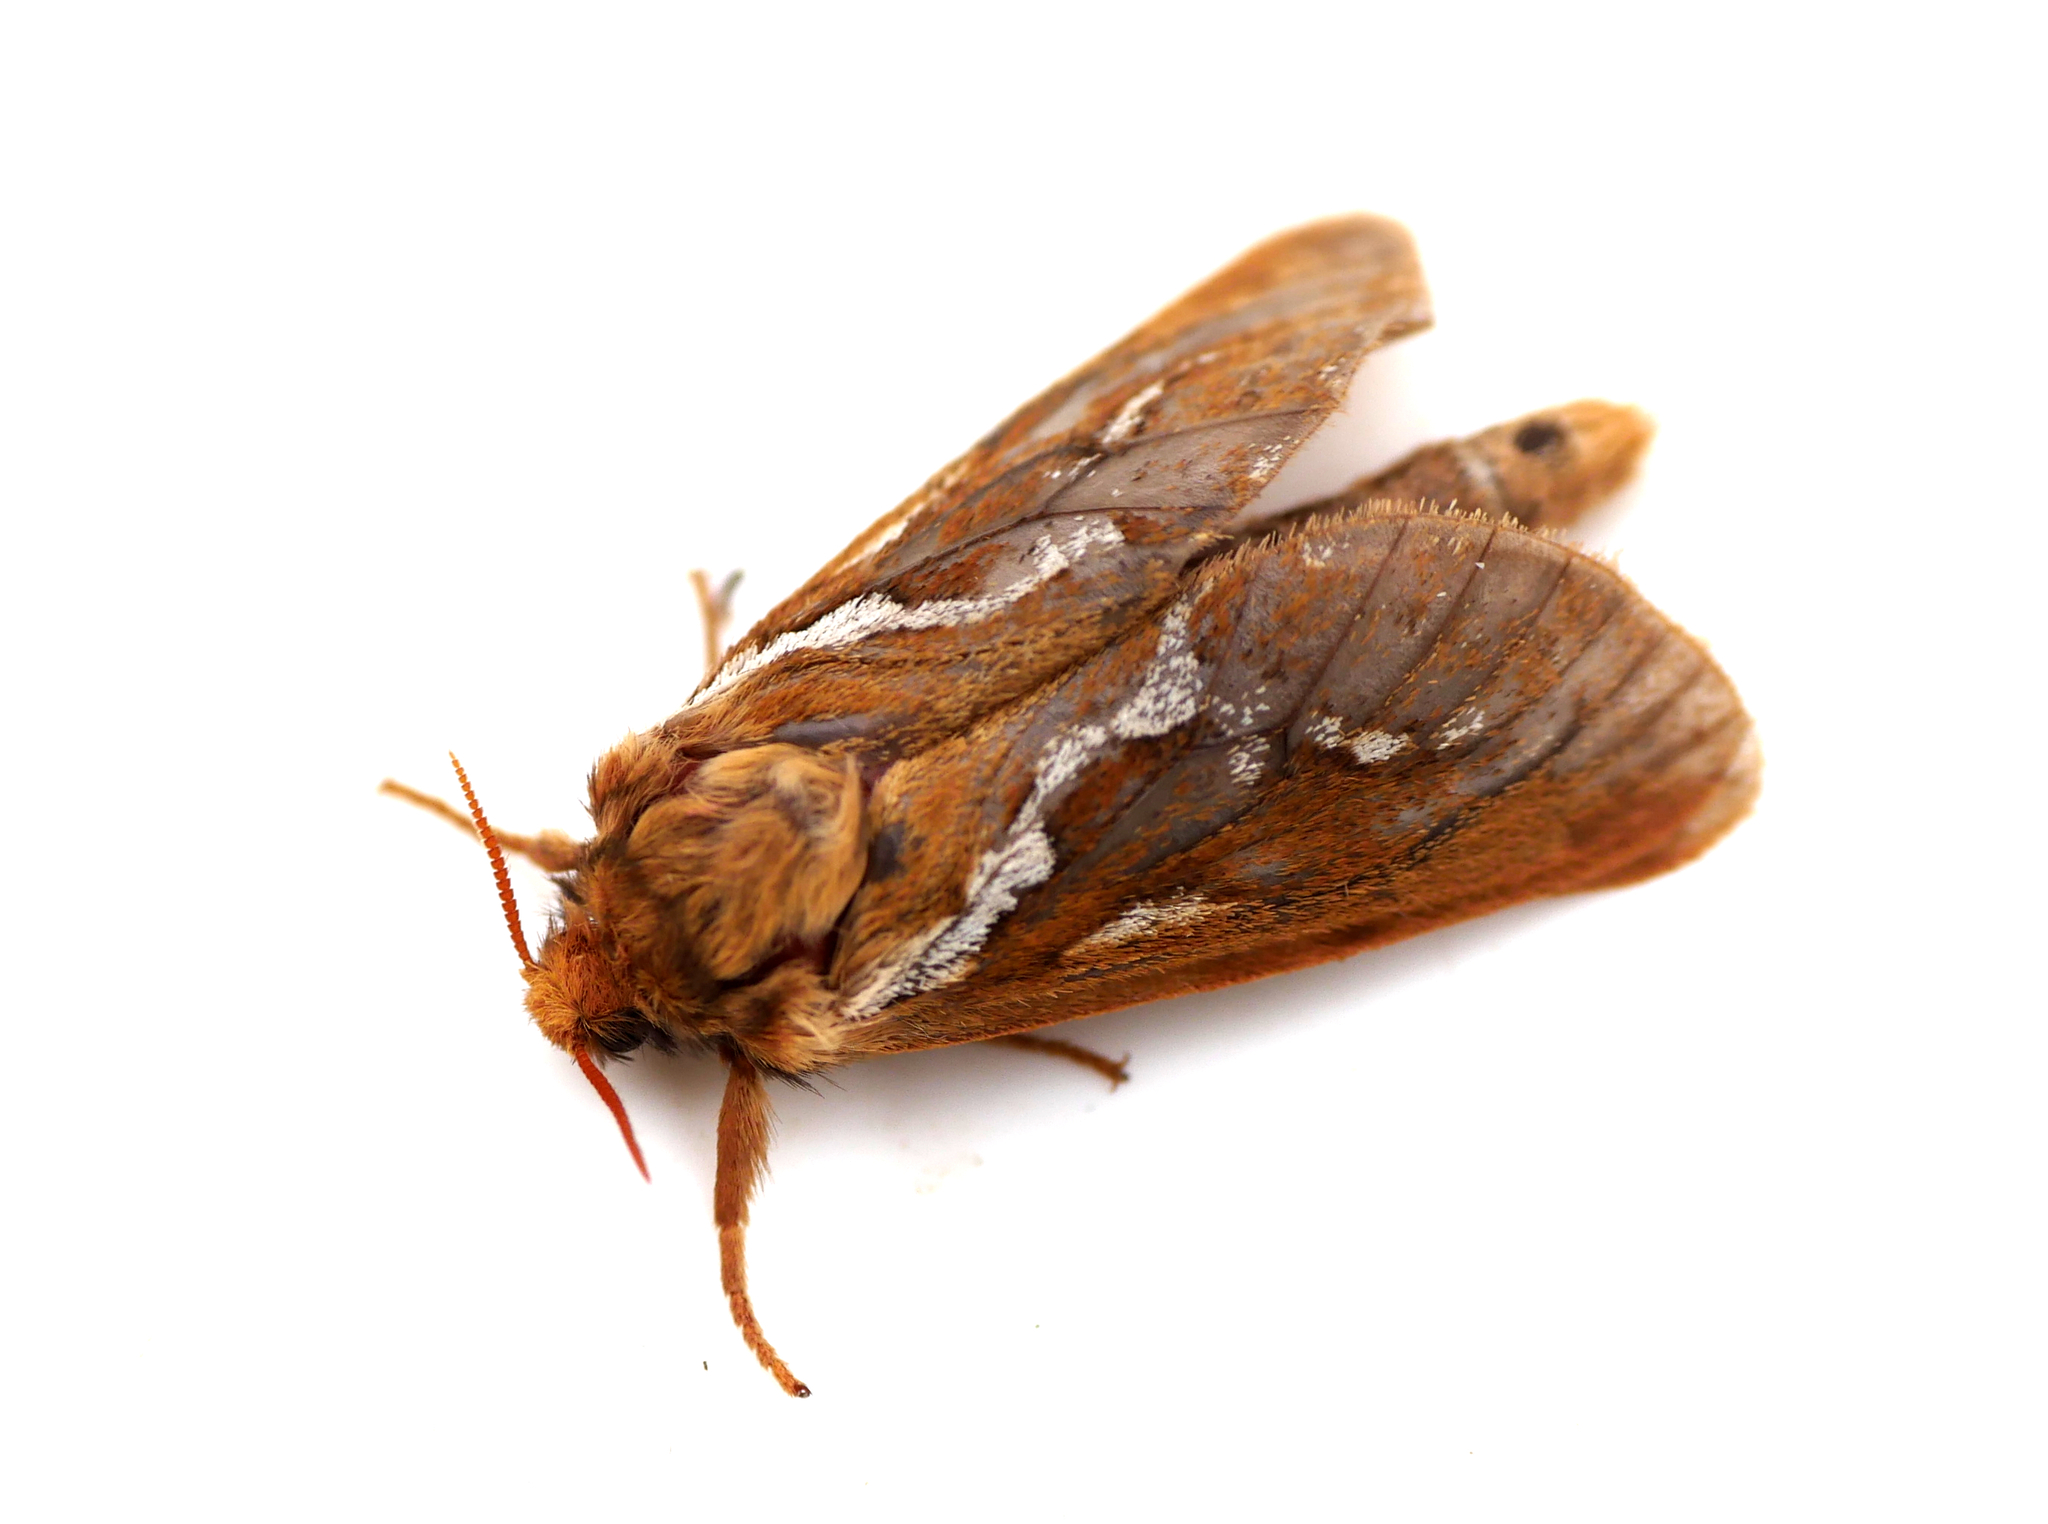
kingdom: Animalia
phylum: Arthropoda
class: Insecta
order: Lepidoptera
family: Hepialidae
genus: Korscheltellus
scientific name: Korscheltellus lupulina
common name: Common swift
